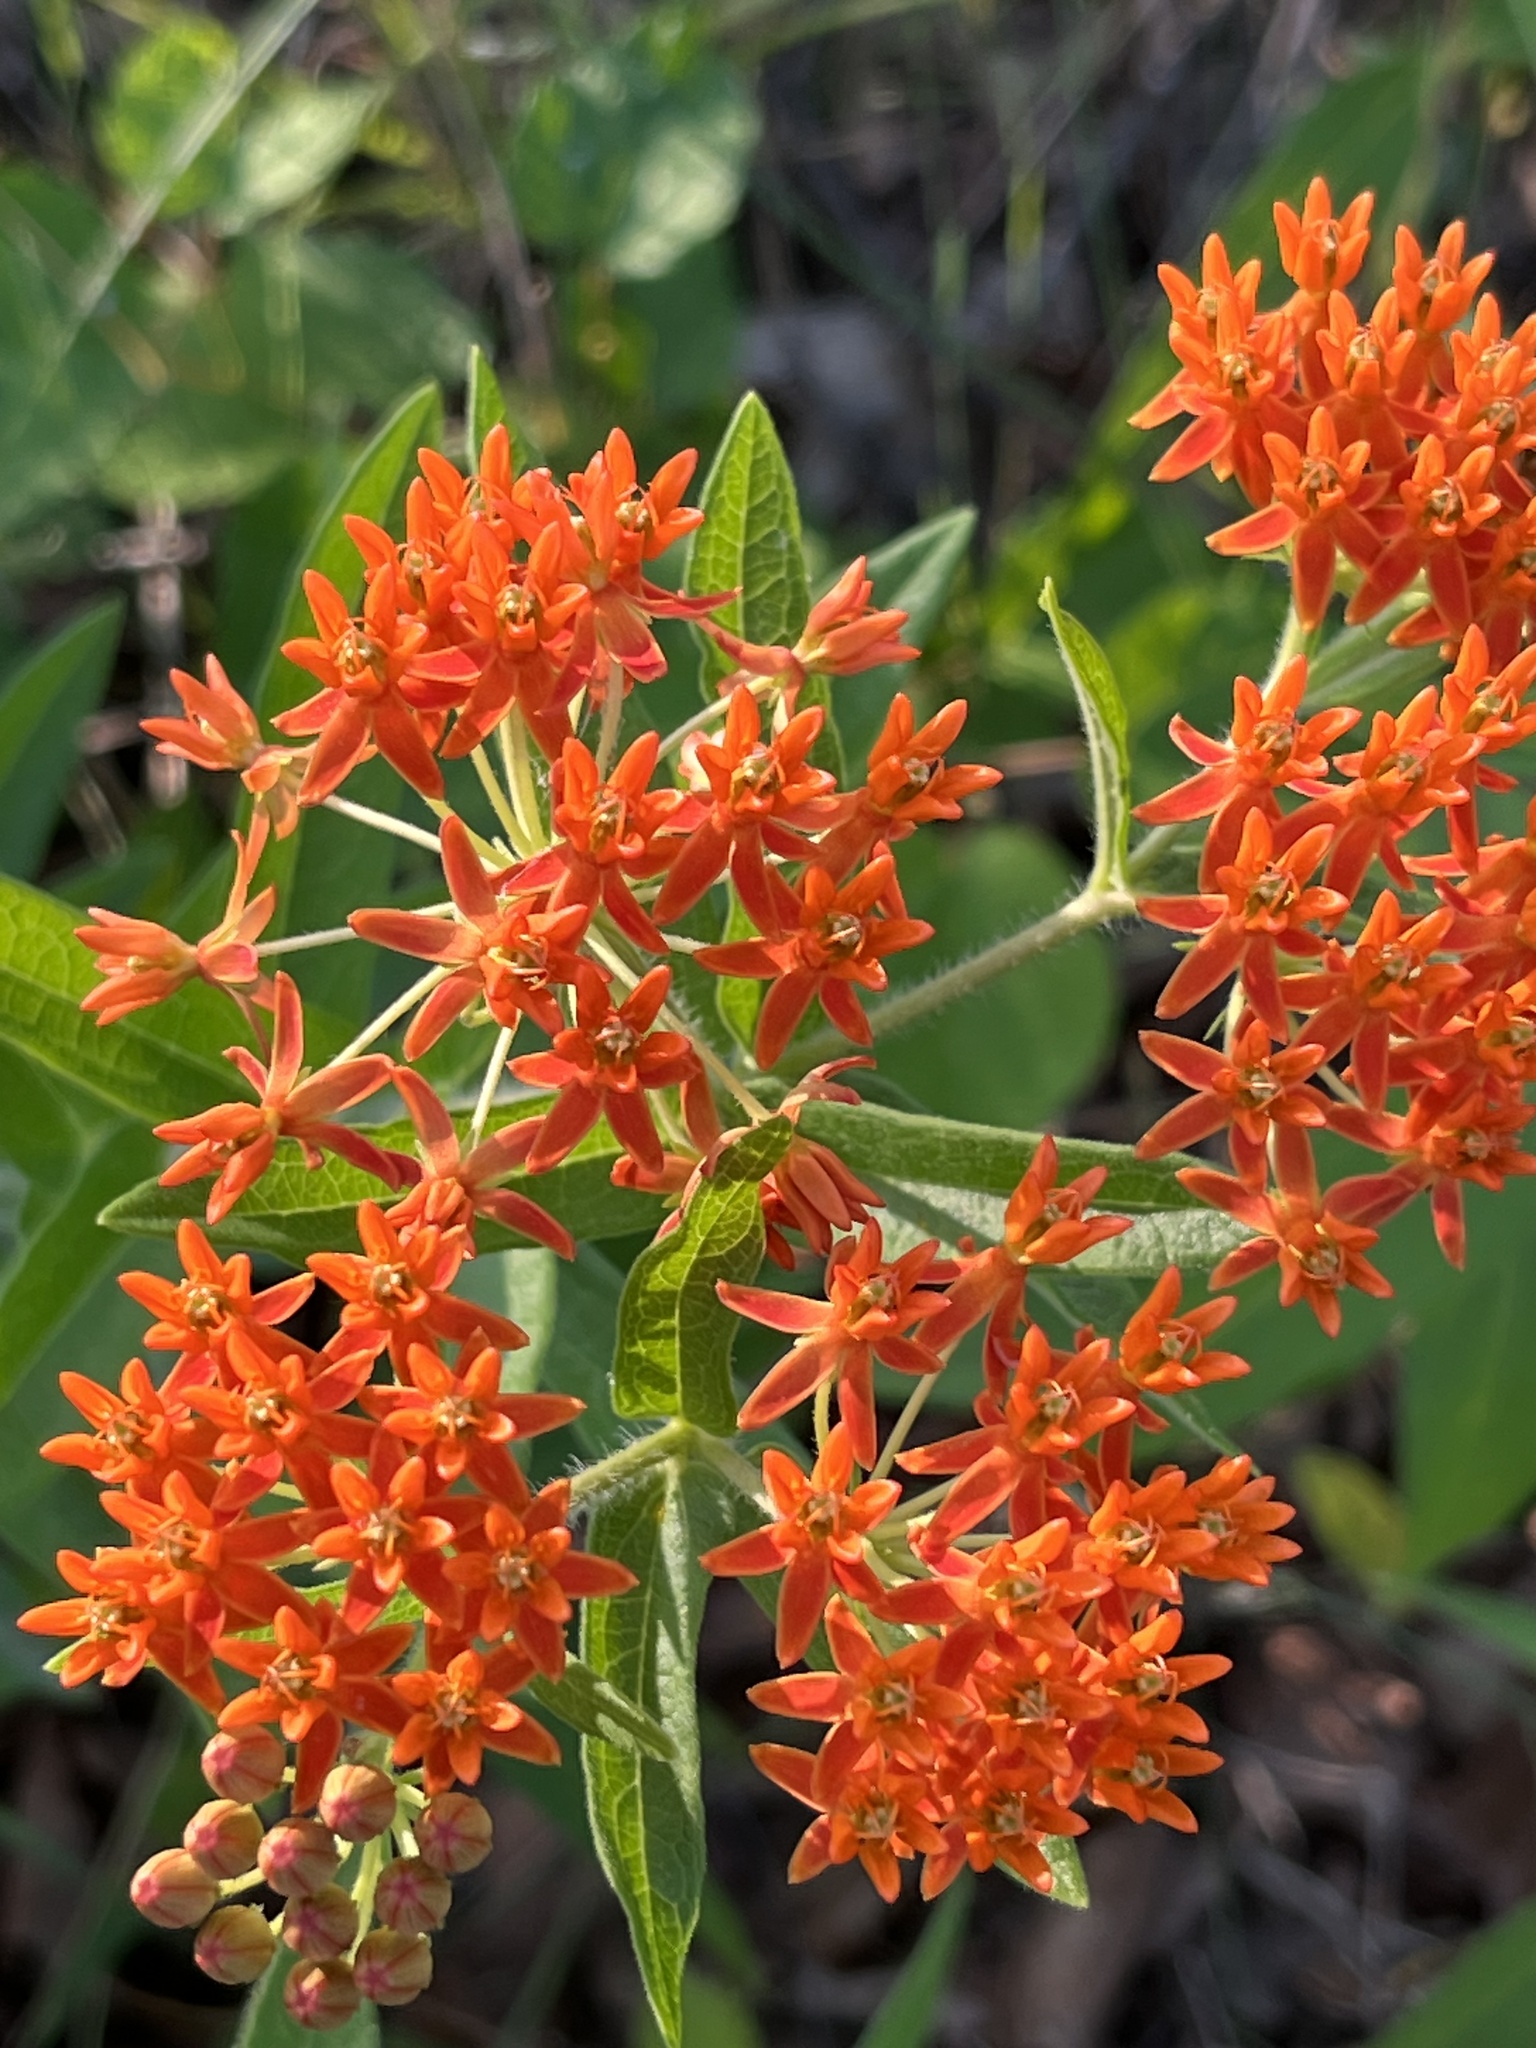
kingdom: Plantae
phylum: Tracheophyta
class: Magnoliopsida
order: Gentianales
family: Apocynaceae
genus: Asclepias
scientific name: Asclepias tuberosa
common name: Butterfly milkweed
